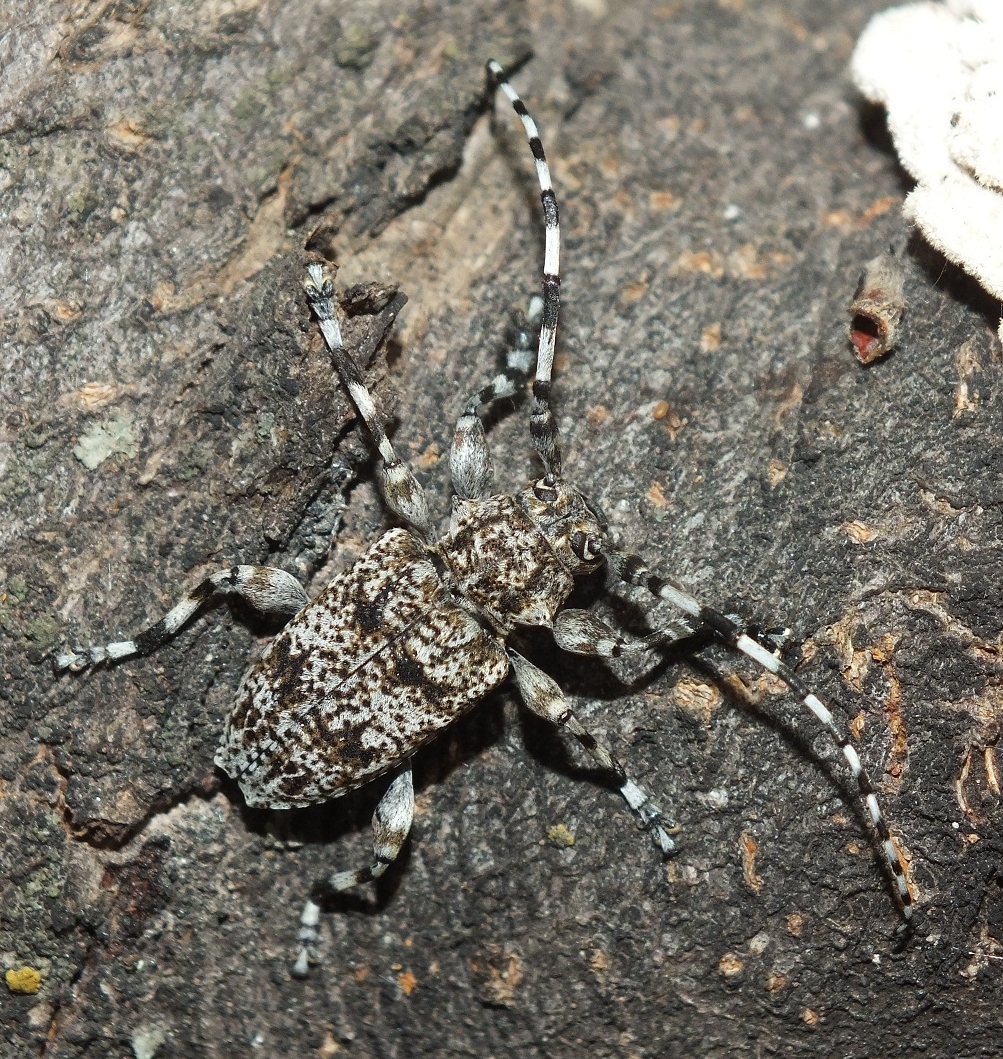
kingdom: Animalia
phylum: Arthropoda
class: Insecta
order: Coleoptera
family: Cerambycidae
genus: Aegomorphus
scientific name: Aegomorphus clavipes
